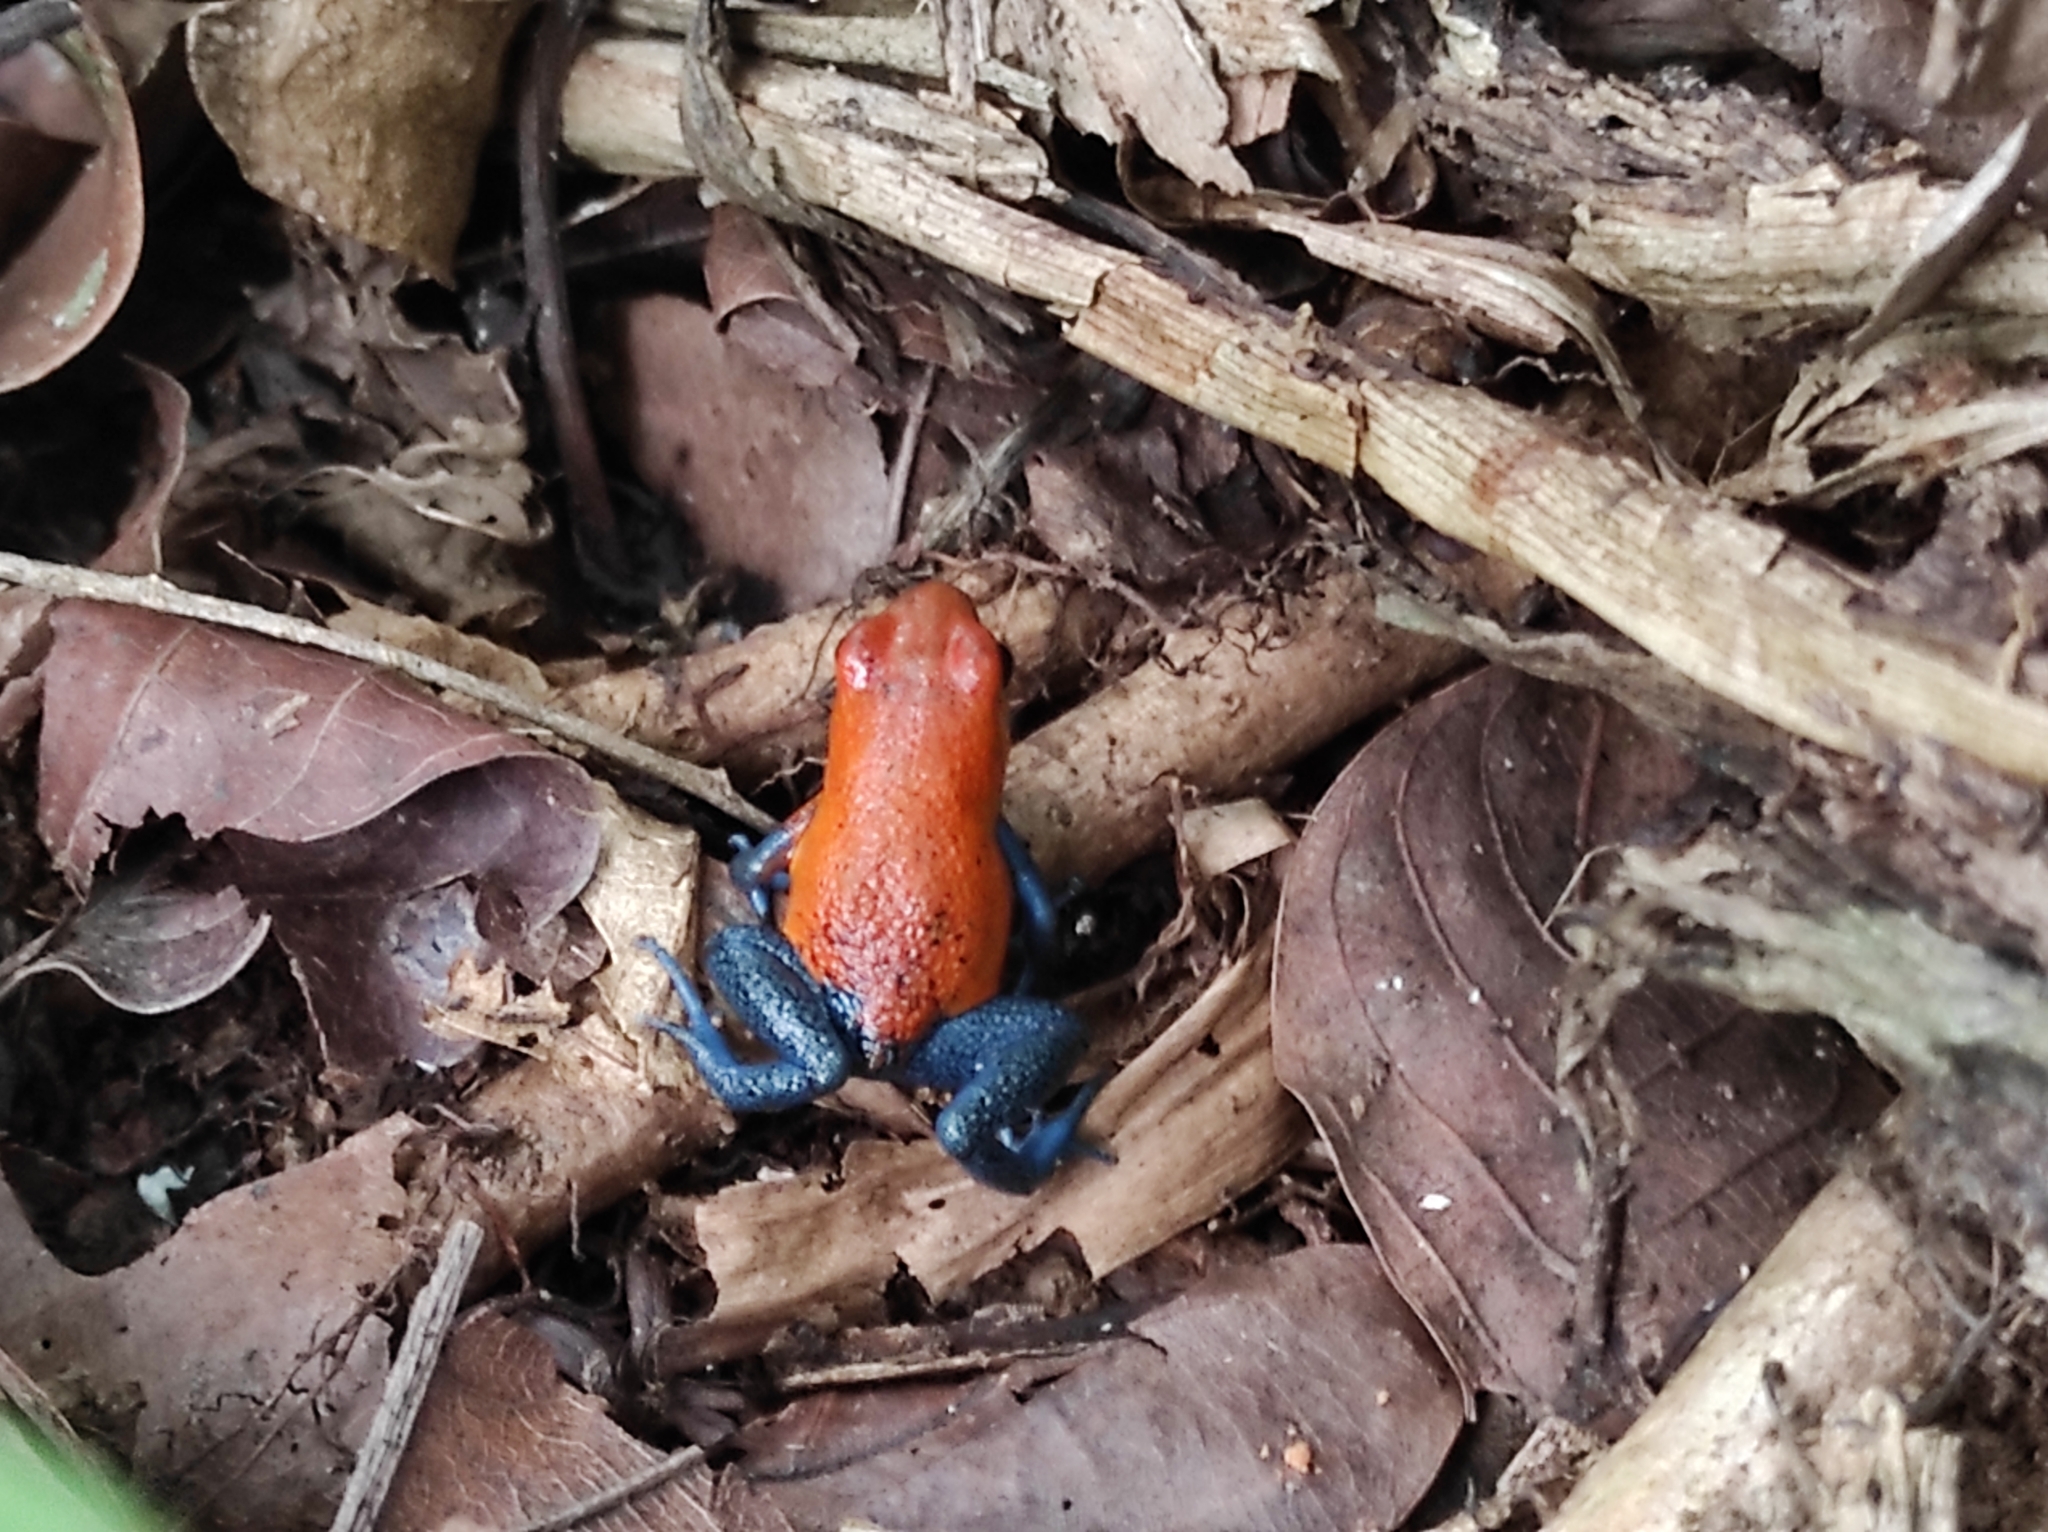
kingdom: Animalia
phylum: Chordata
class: Amphibia
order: Anura
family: Dendrobatidae
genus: Oophaga
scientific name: Oophaga pumilio
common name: Flaming poison frog
